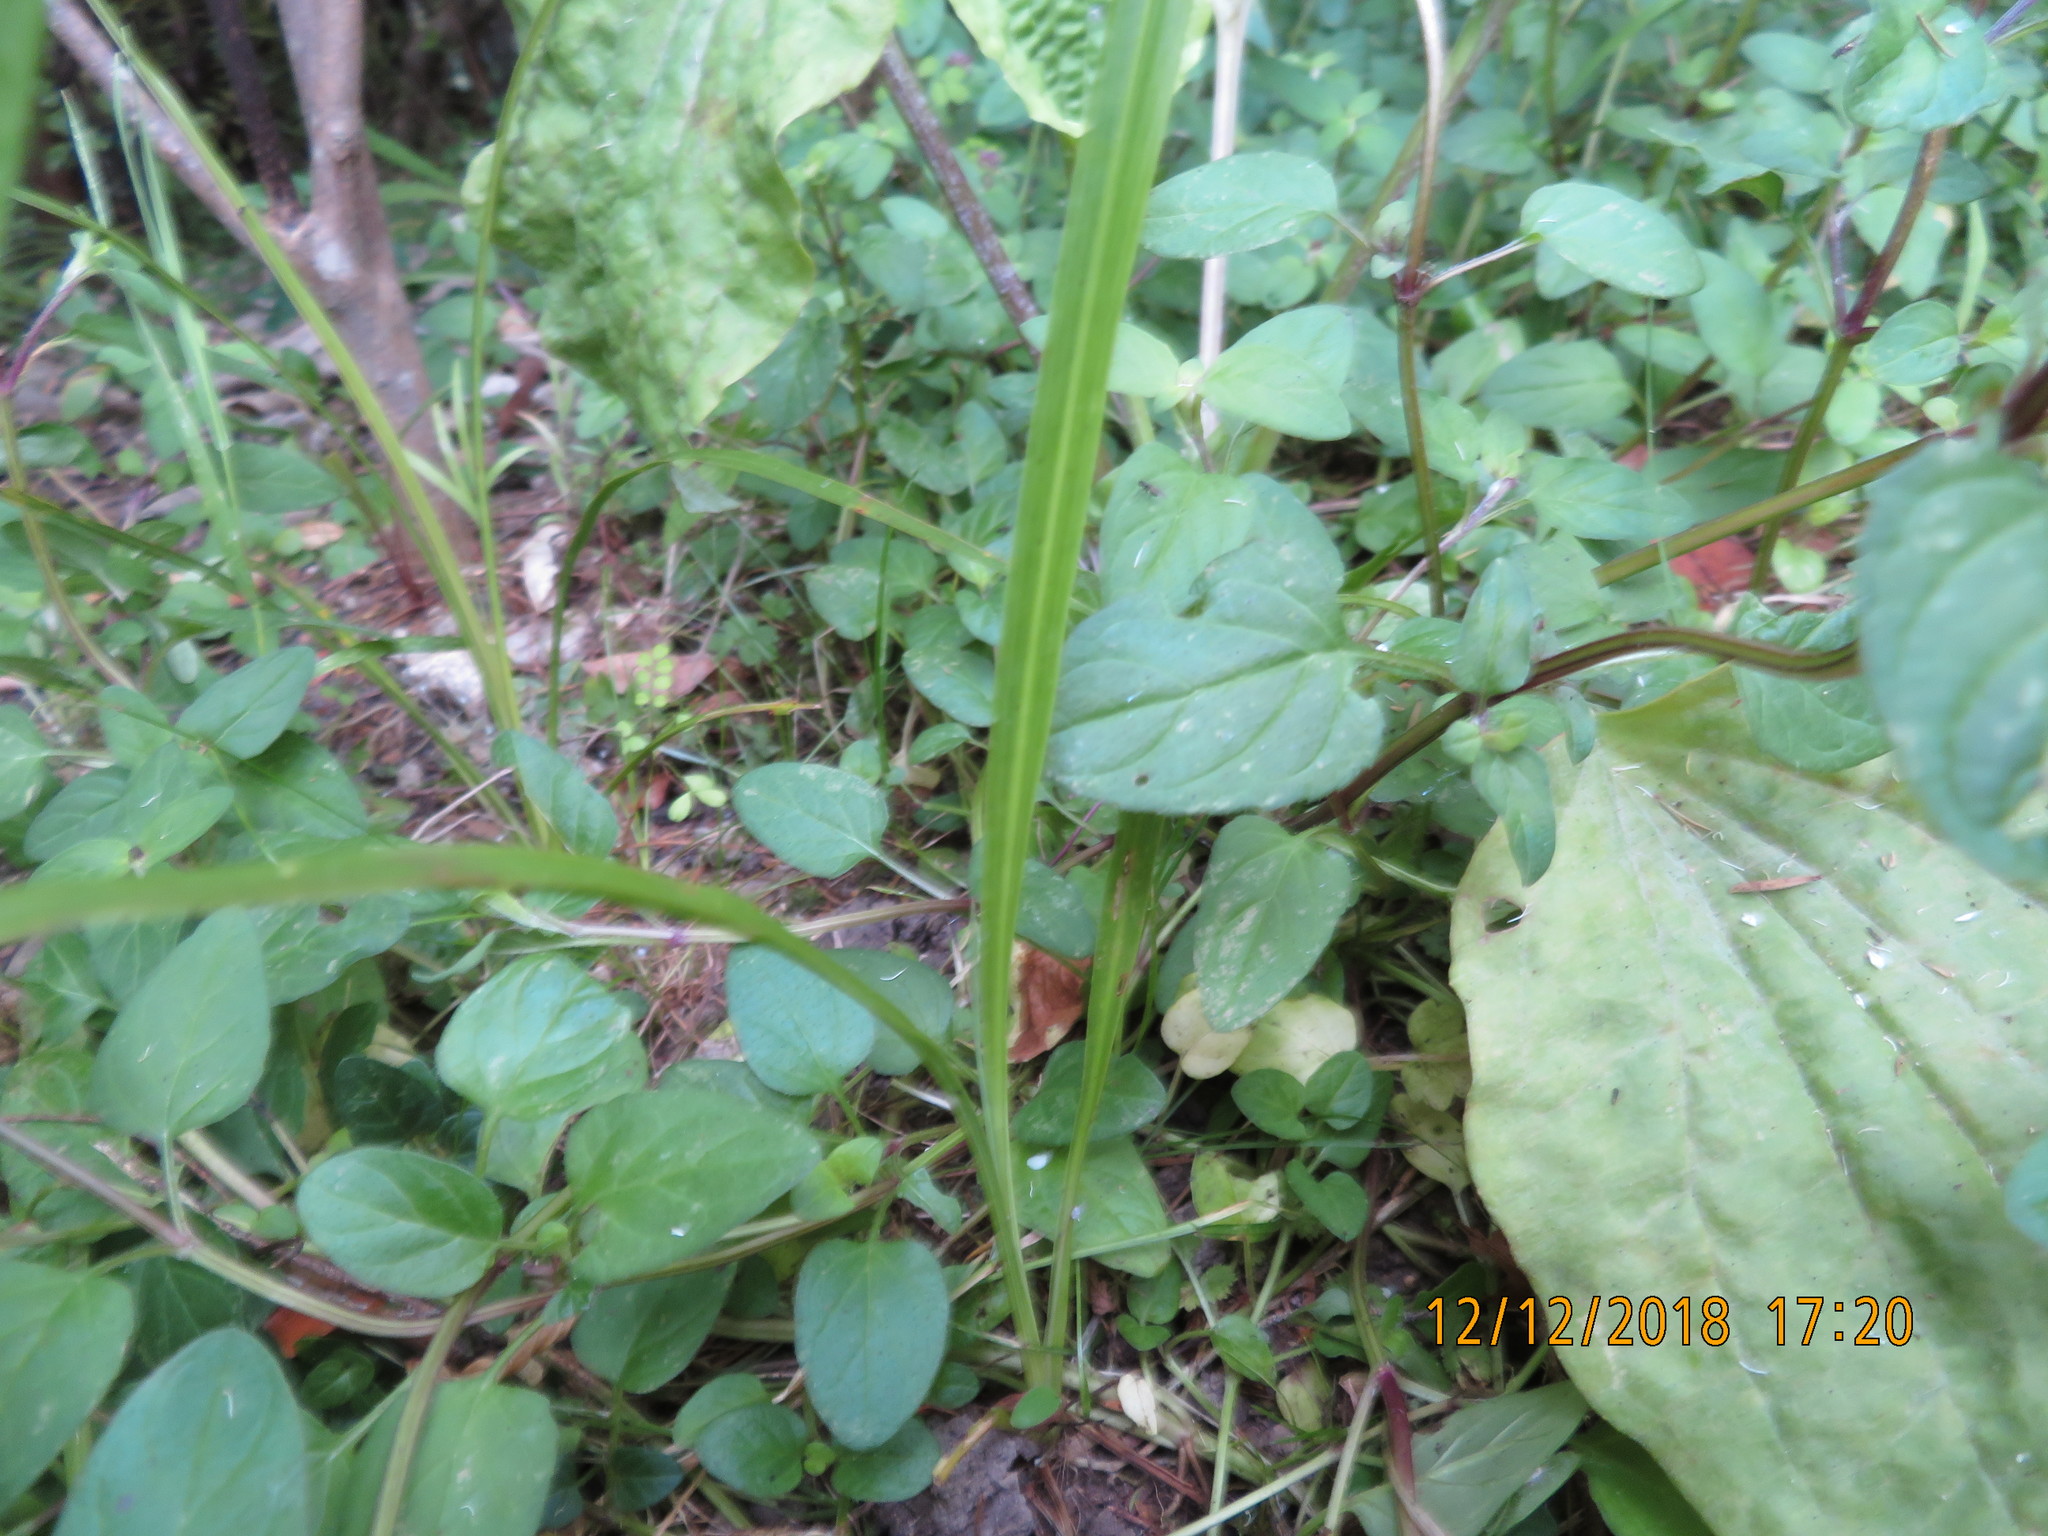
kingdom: Plantae
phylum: Tracheophyta
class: Magnoliopsida
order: Lamiales
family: Lamiaceae
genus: Prunella
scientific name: Prunella vulgaris
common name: Heal-all
